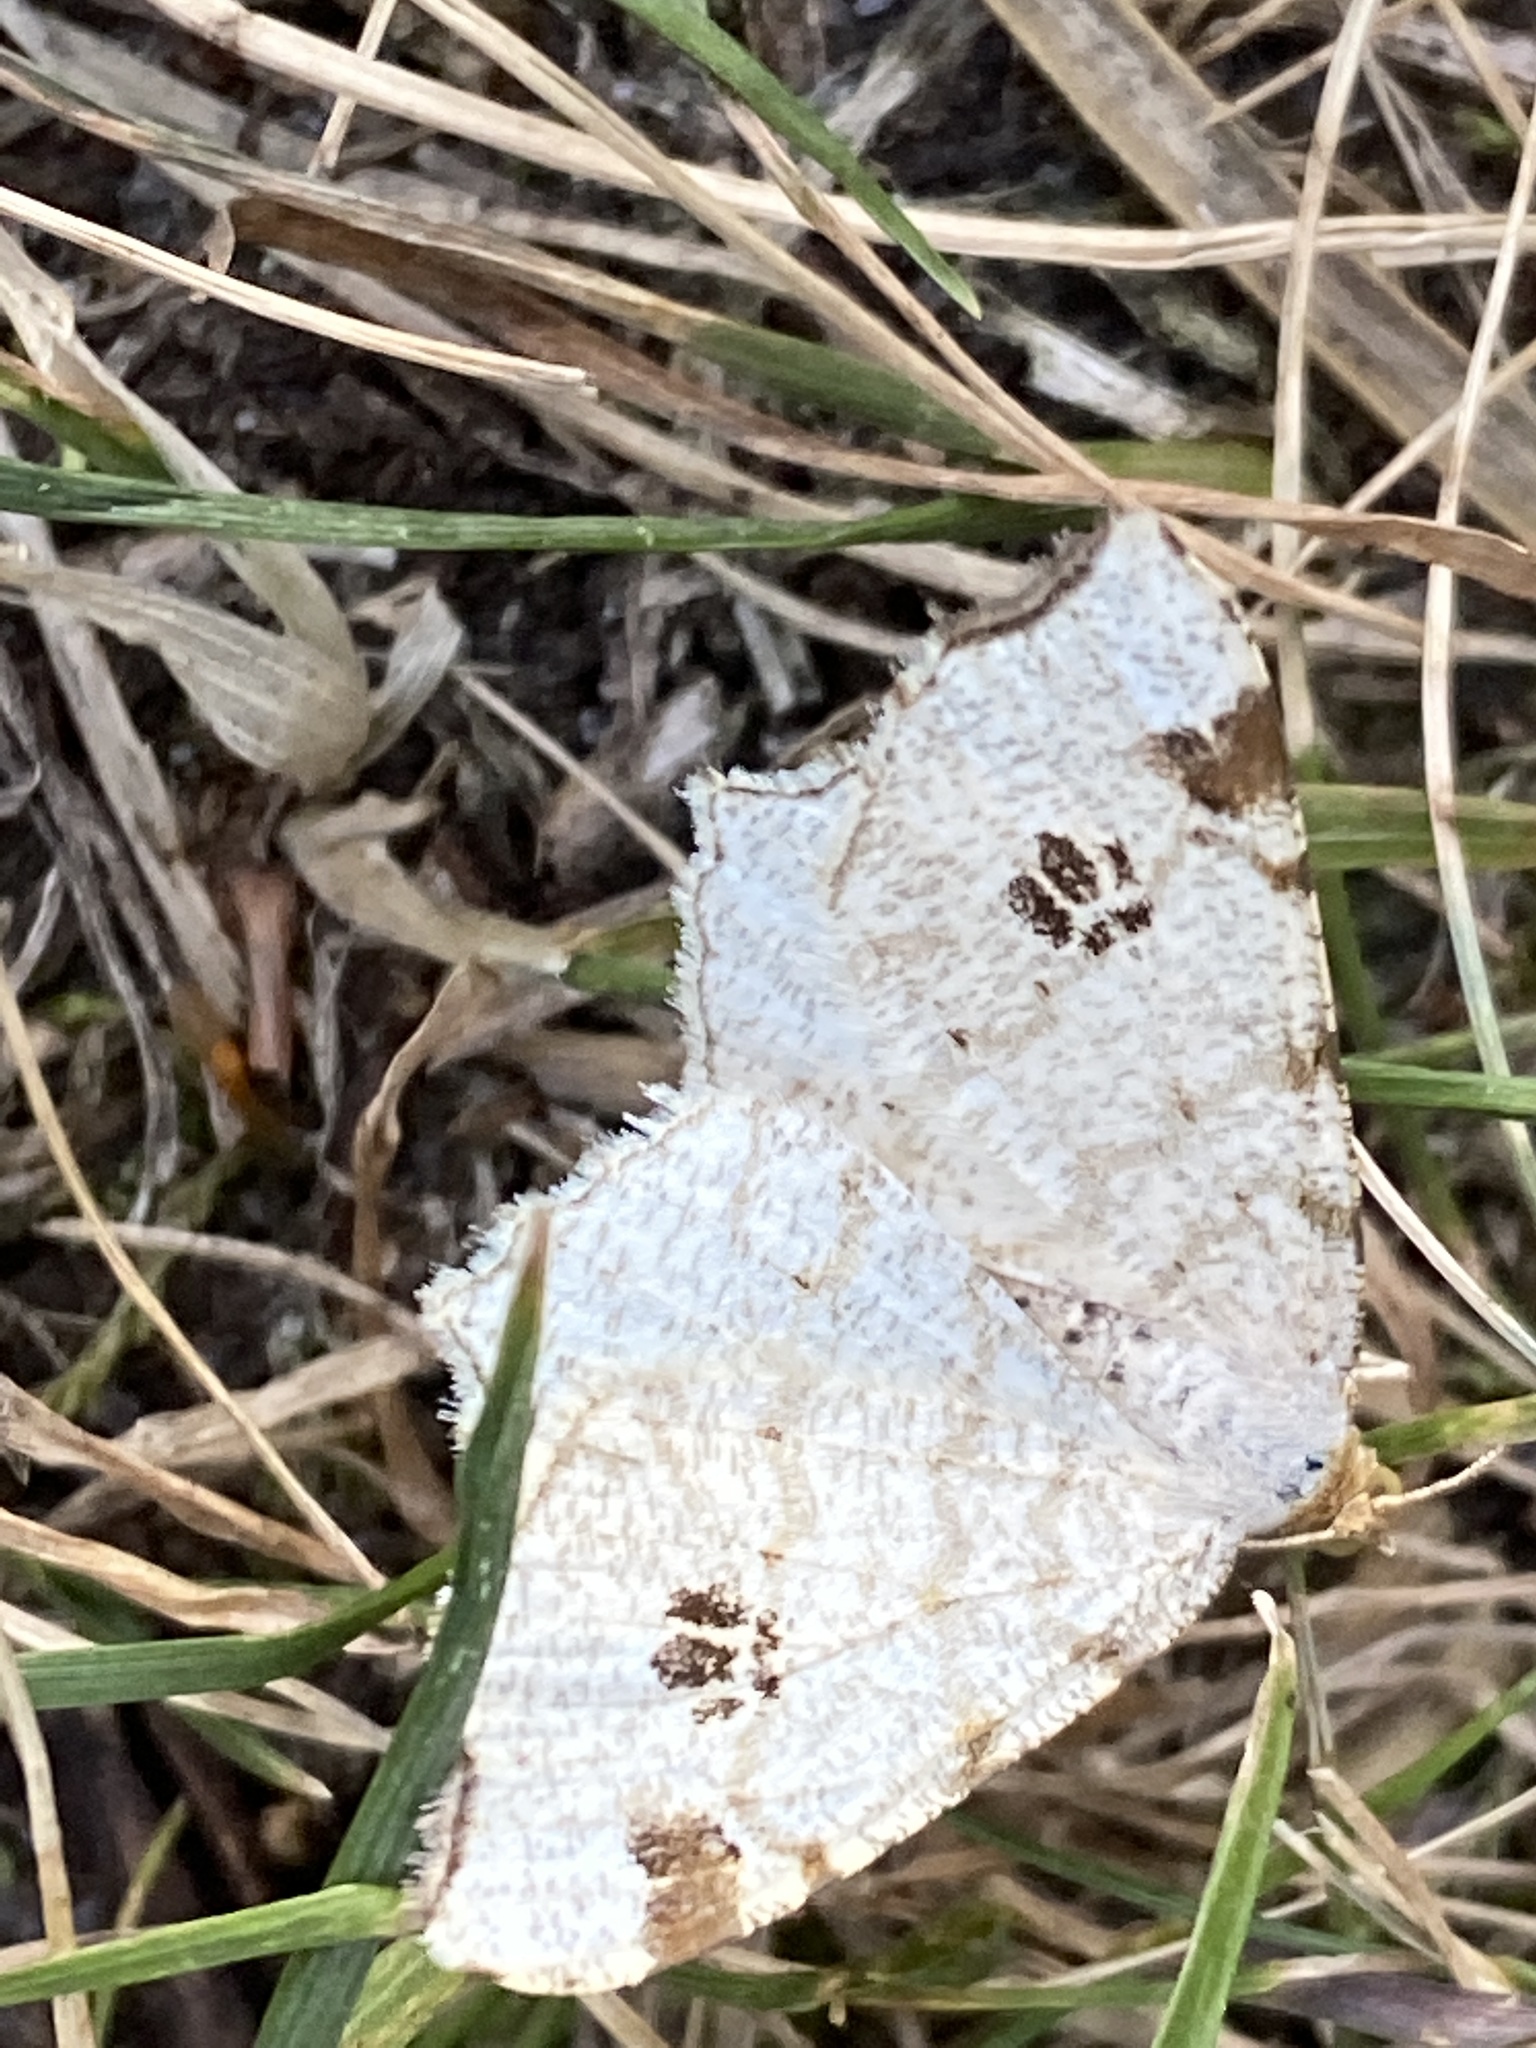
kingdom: Animalia
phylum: Arthropoda
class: Insecta
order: Lepidoptera
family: Geometridae
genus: Macaria
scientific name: Macaria notata
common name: Peacock moth
